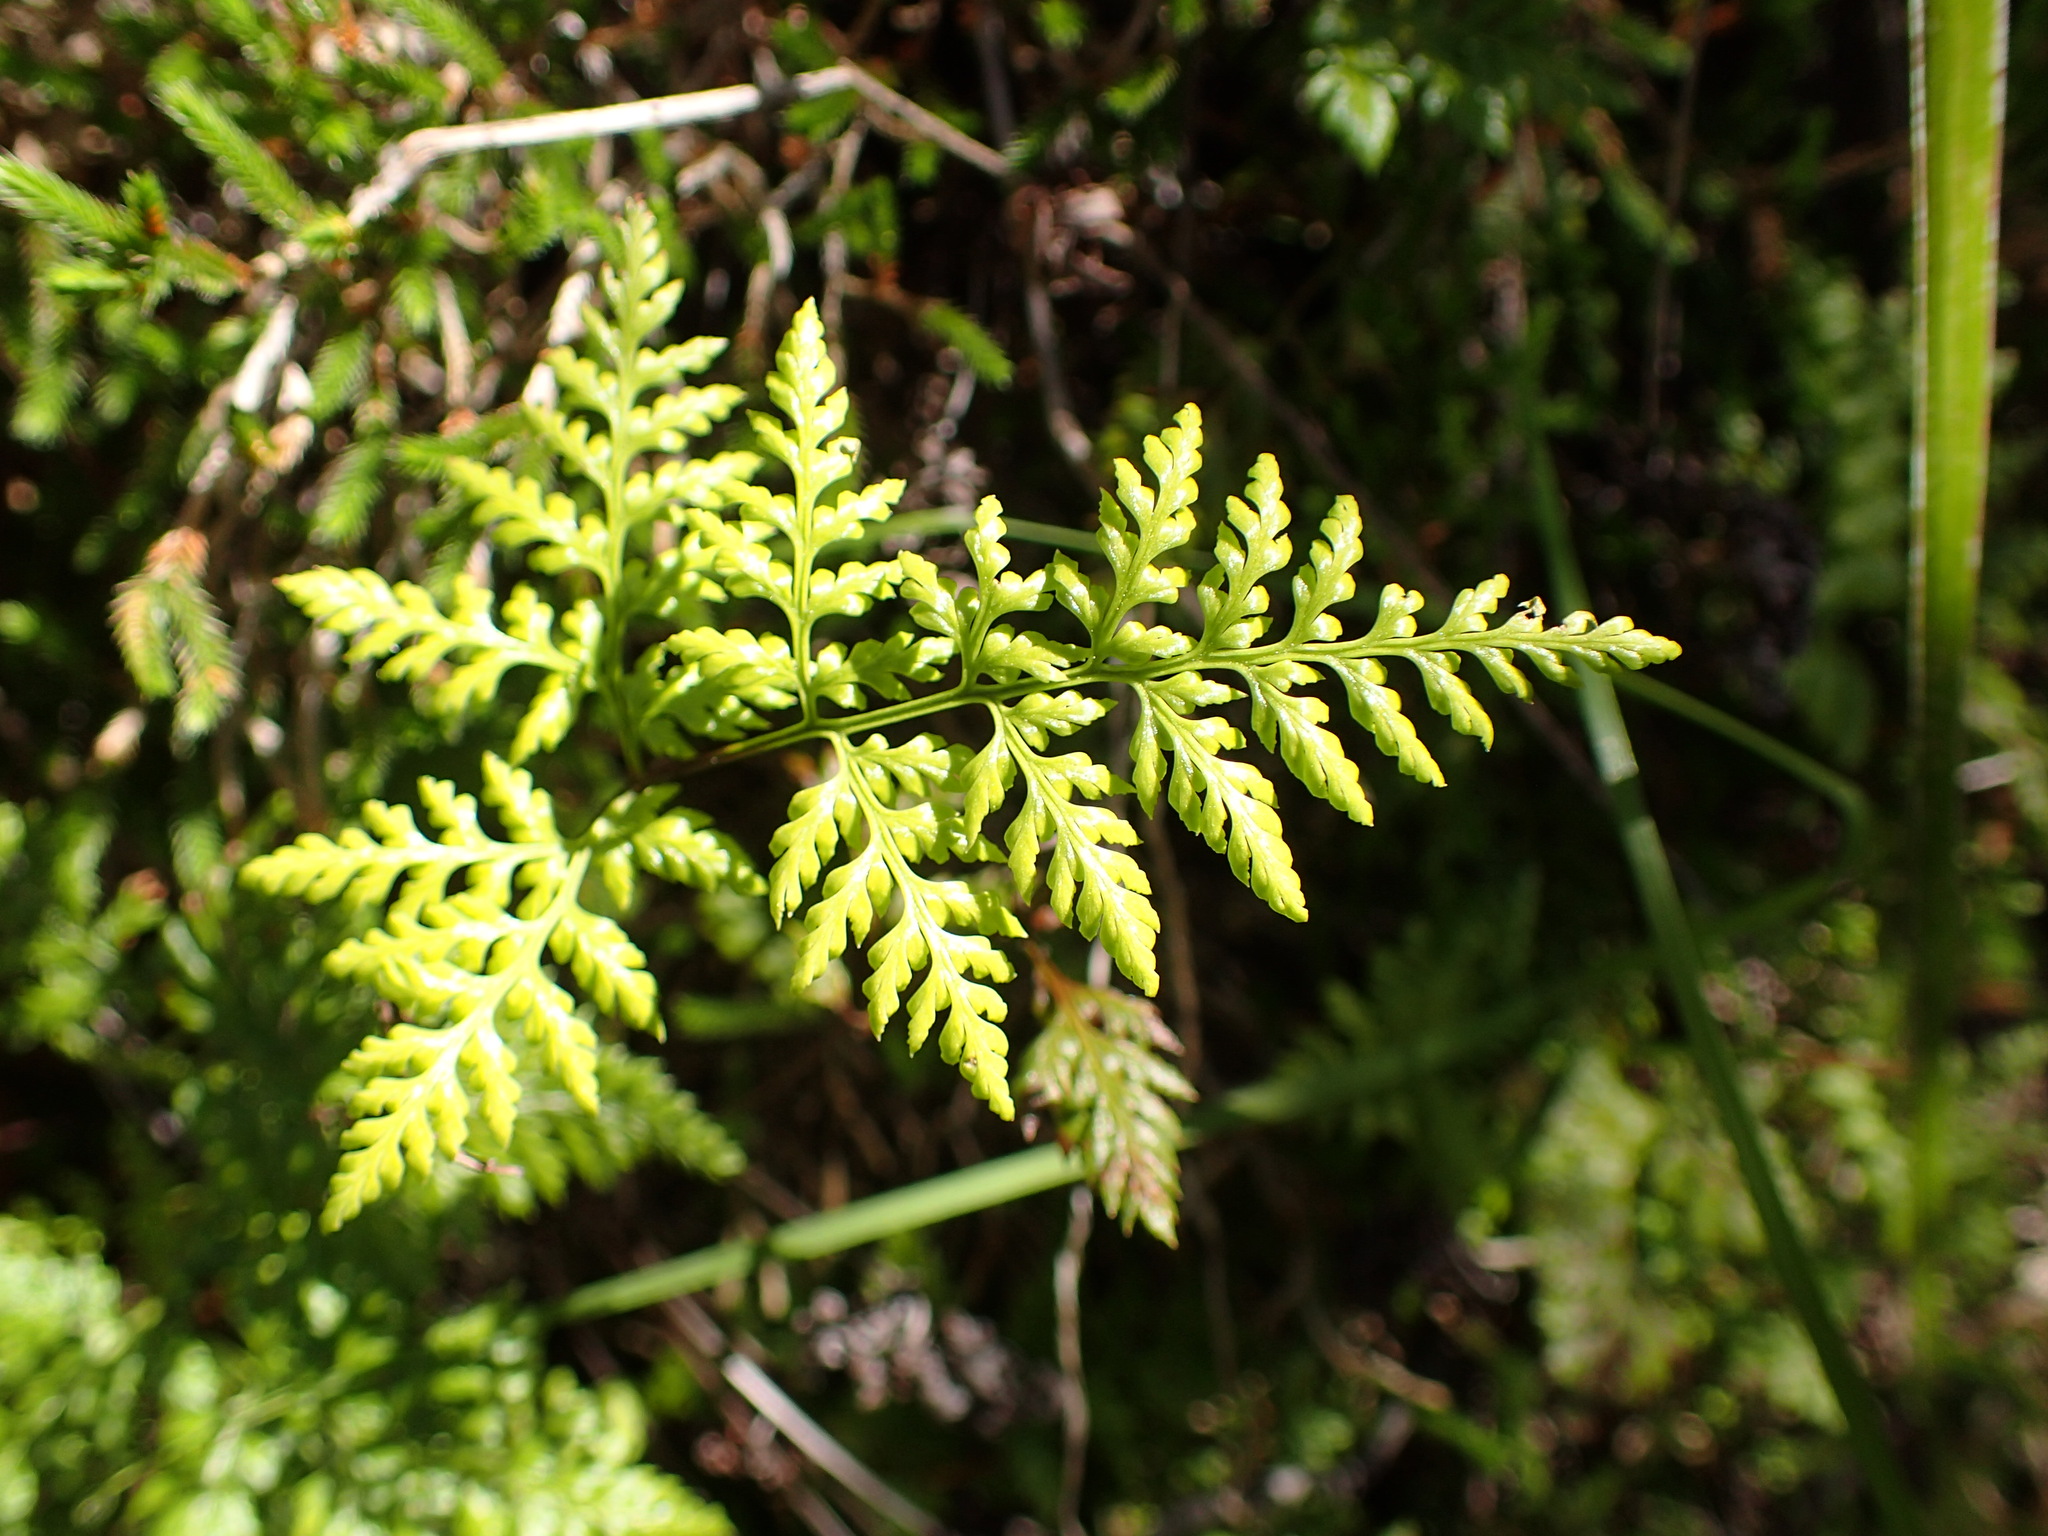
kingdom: Plantae
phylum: Tracheophyta
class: Polypodiopsida
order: Polypodiales
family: Pteridaceae
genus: Aspidotis
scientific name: Aspidotis californica
